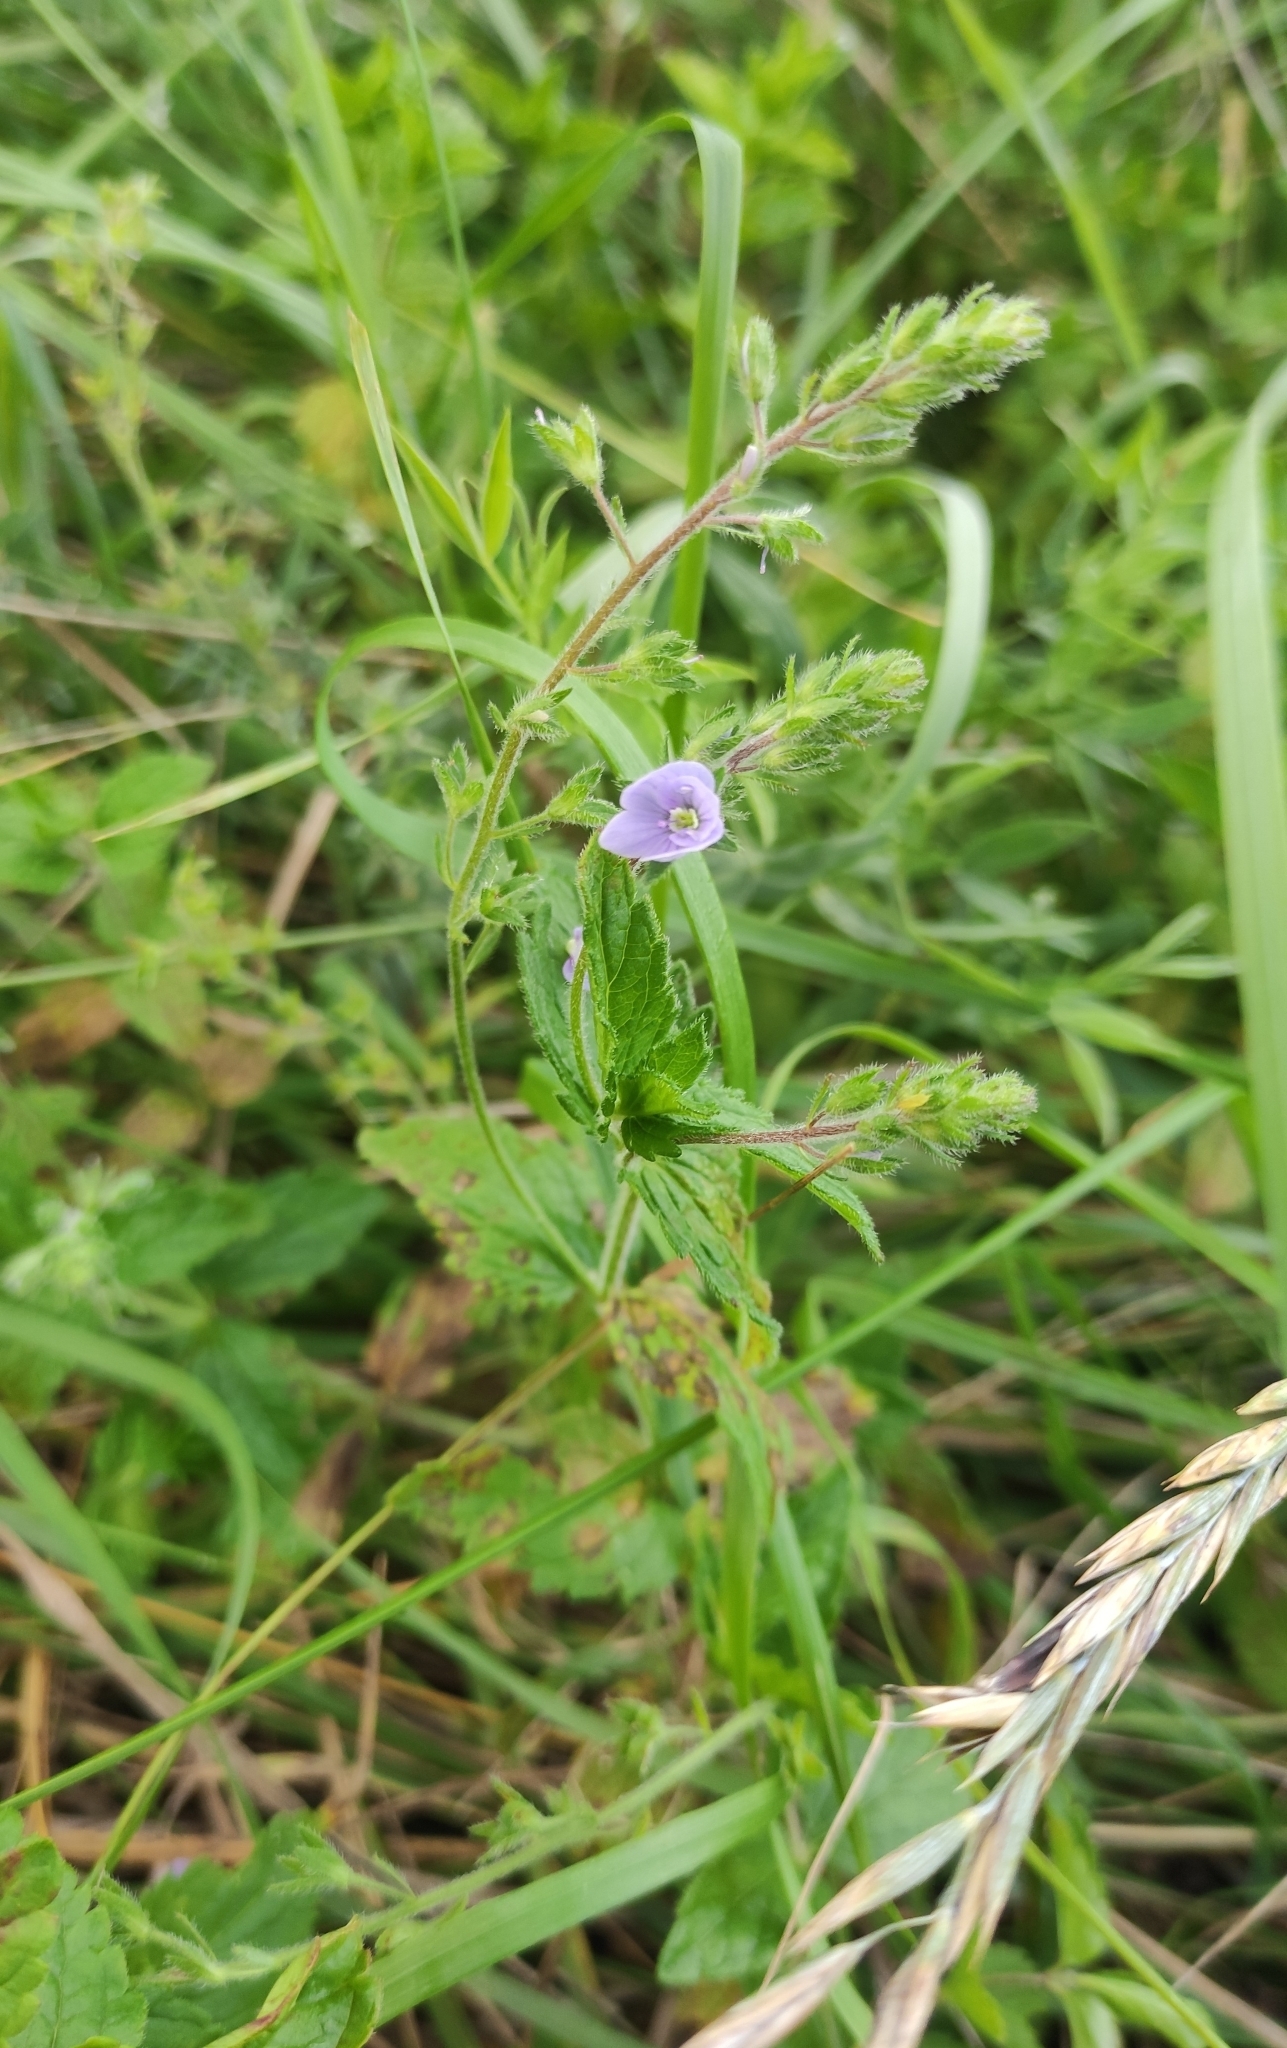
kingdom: Plantae
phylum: Tracheophyta
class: Magnoliopsida
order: Lamiales
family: Plantaginaceae
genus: Veronica
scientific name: Veronica chamaedrys
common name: Germander speedwell
